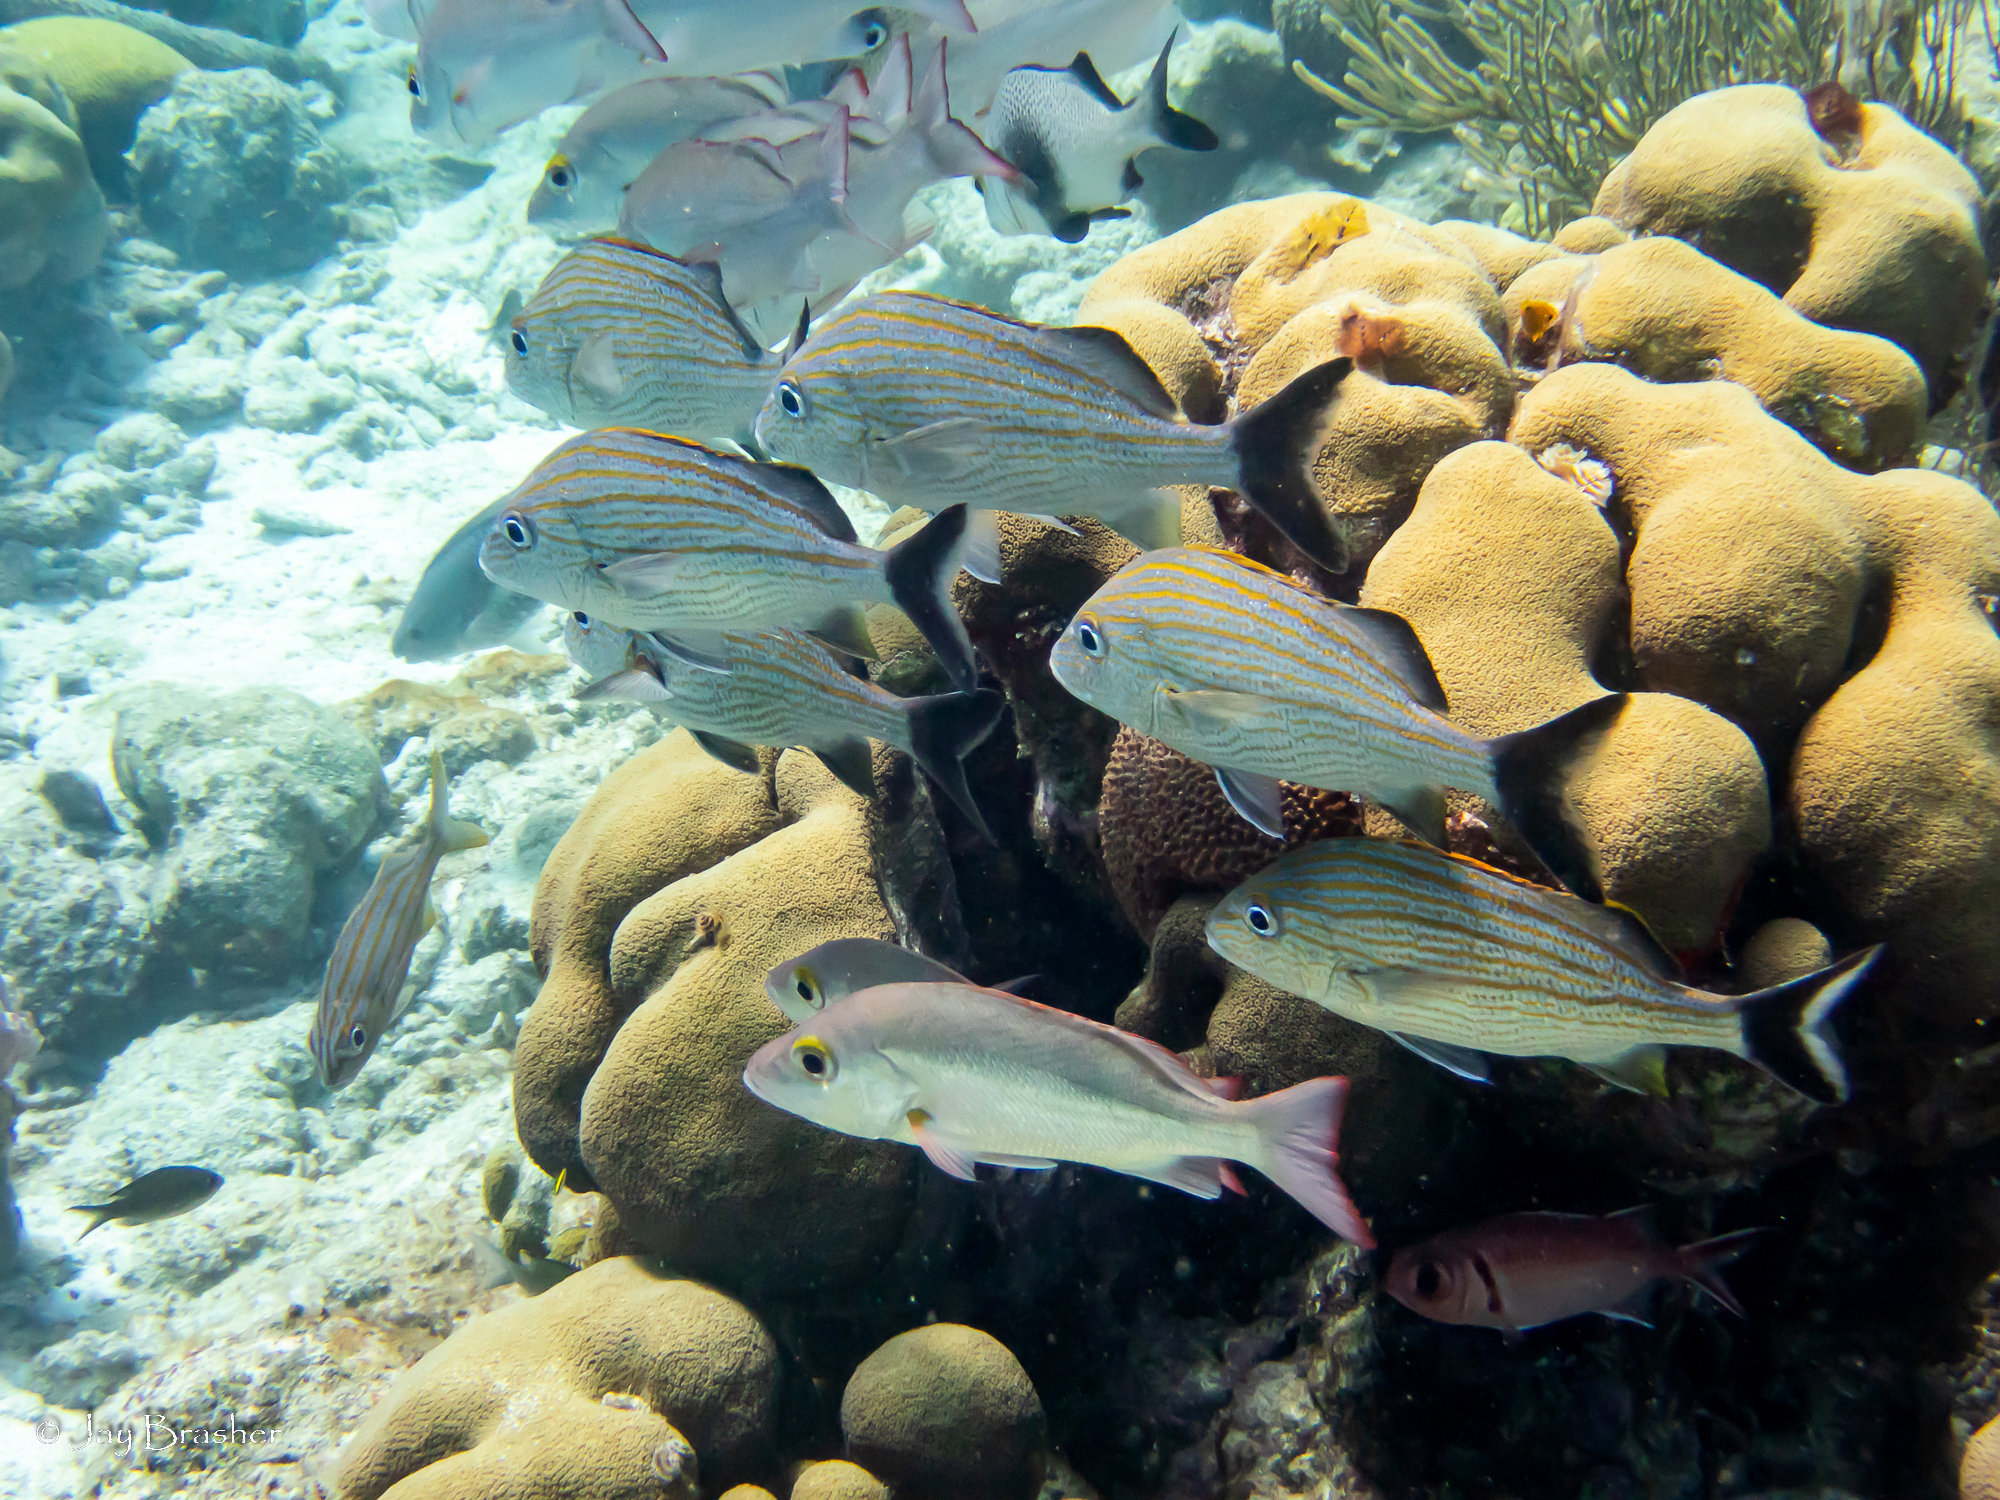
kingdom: Animalia
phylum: Cnidaria
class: Anthozoa
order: Scleractinia
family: Merulinidae
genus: Orbicella
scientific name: Orbicella annularis
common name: Boulder star coral
